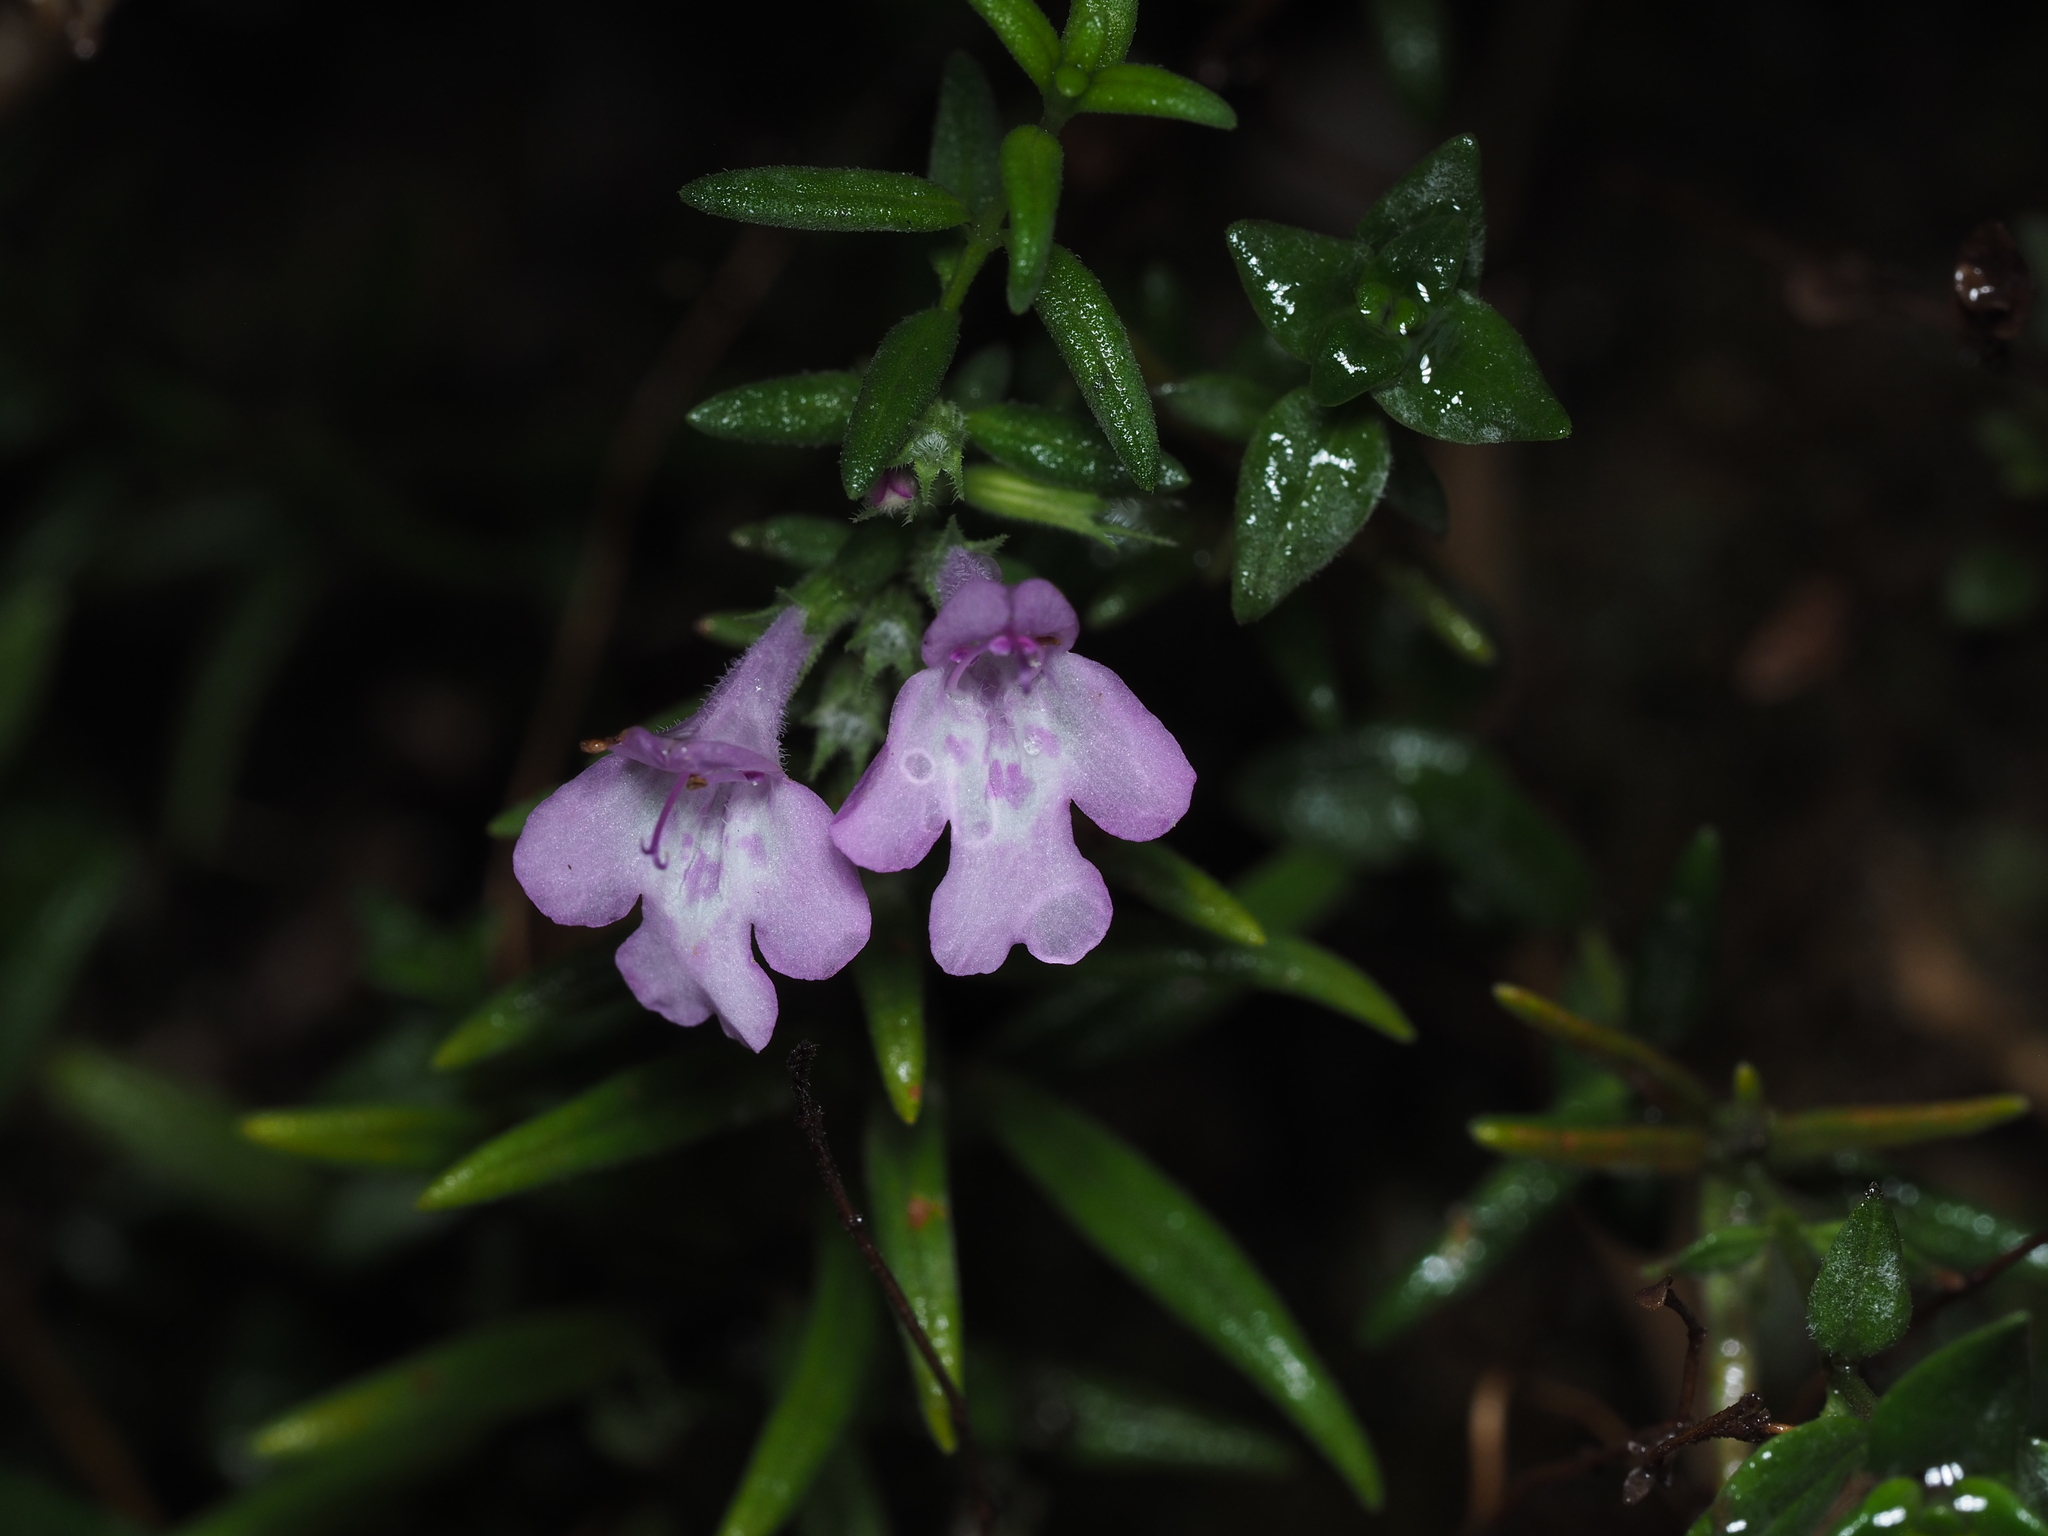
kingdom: Plantae
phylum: Tracheophyta
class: Magnoliopsida
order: Lamiales
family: Lamiaceae
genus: Micromeria
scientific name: Micromeria graeca
